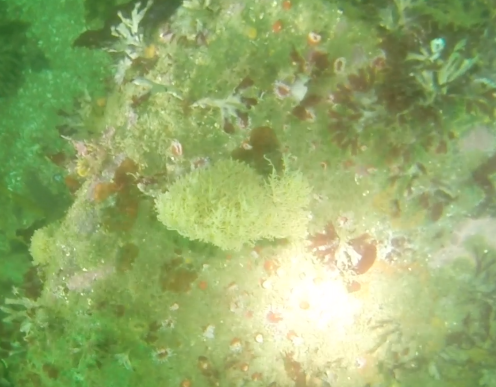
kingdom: Animalia
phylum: Cnidaria
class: Anthozoa
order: Corallimorpharia
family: Corallimorphidae
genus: Corynactis
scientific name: Corynactis californica
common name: Strawberry corallimorpharian
